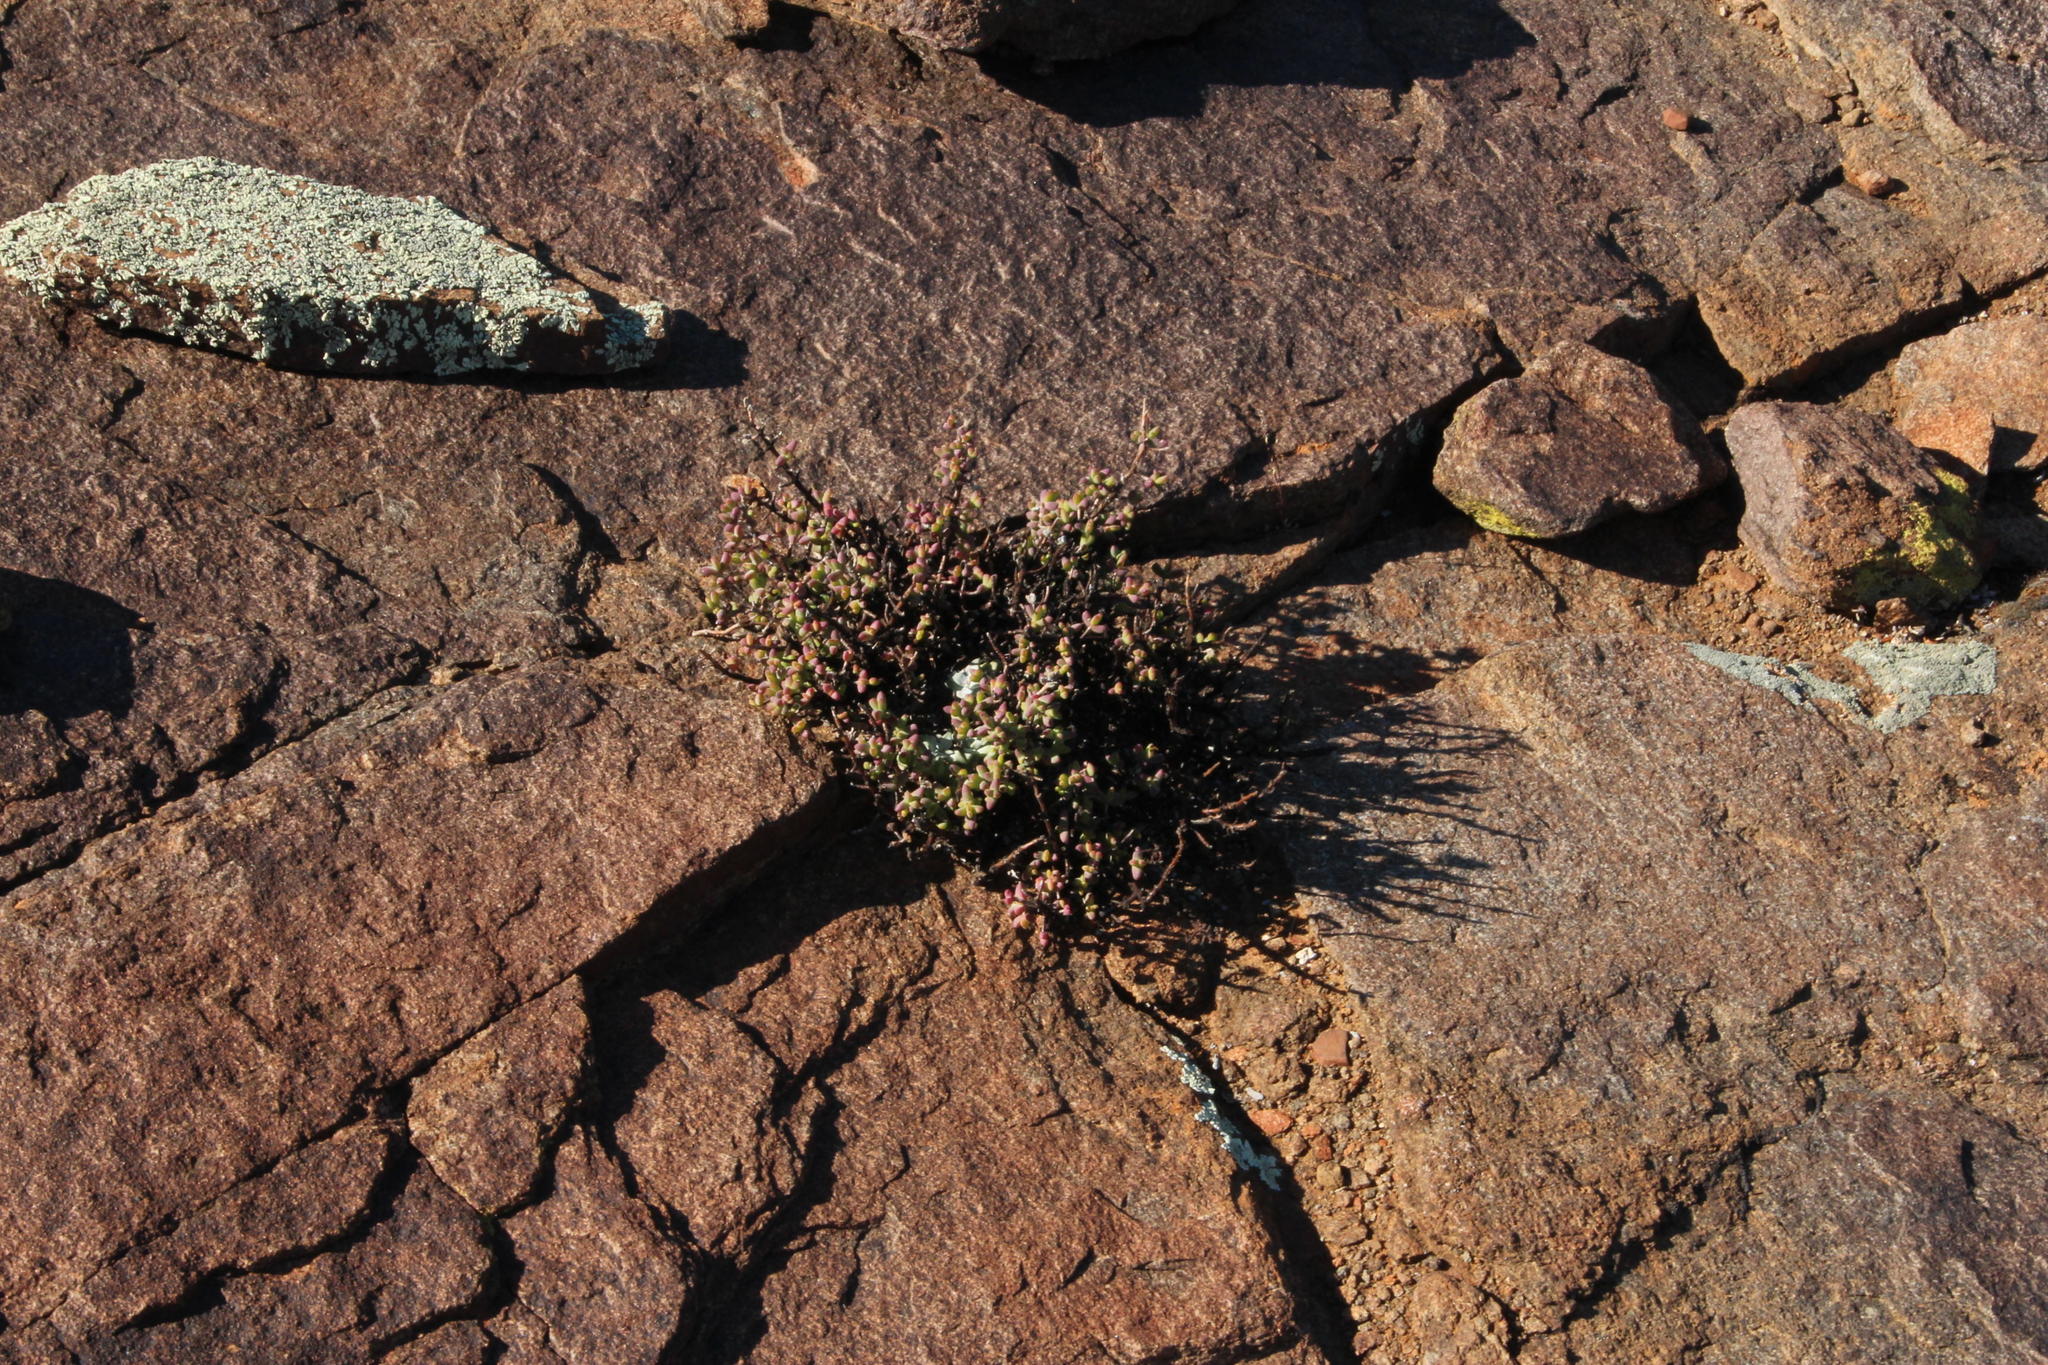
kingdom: Plantae
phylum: Tracheophyta
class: Magnoliopsida
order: Saxifragales
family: Crassulaceae
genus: Crassula
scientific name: Crassula deltoidea
